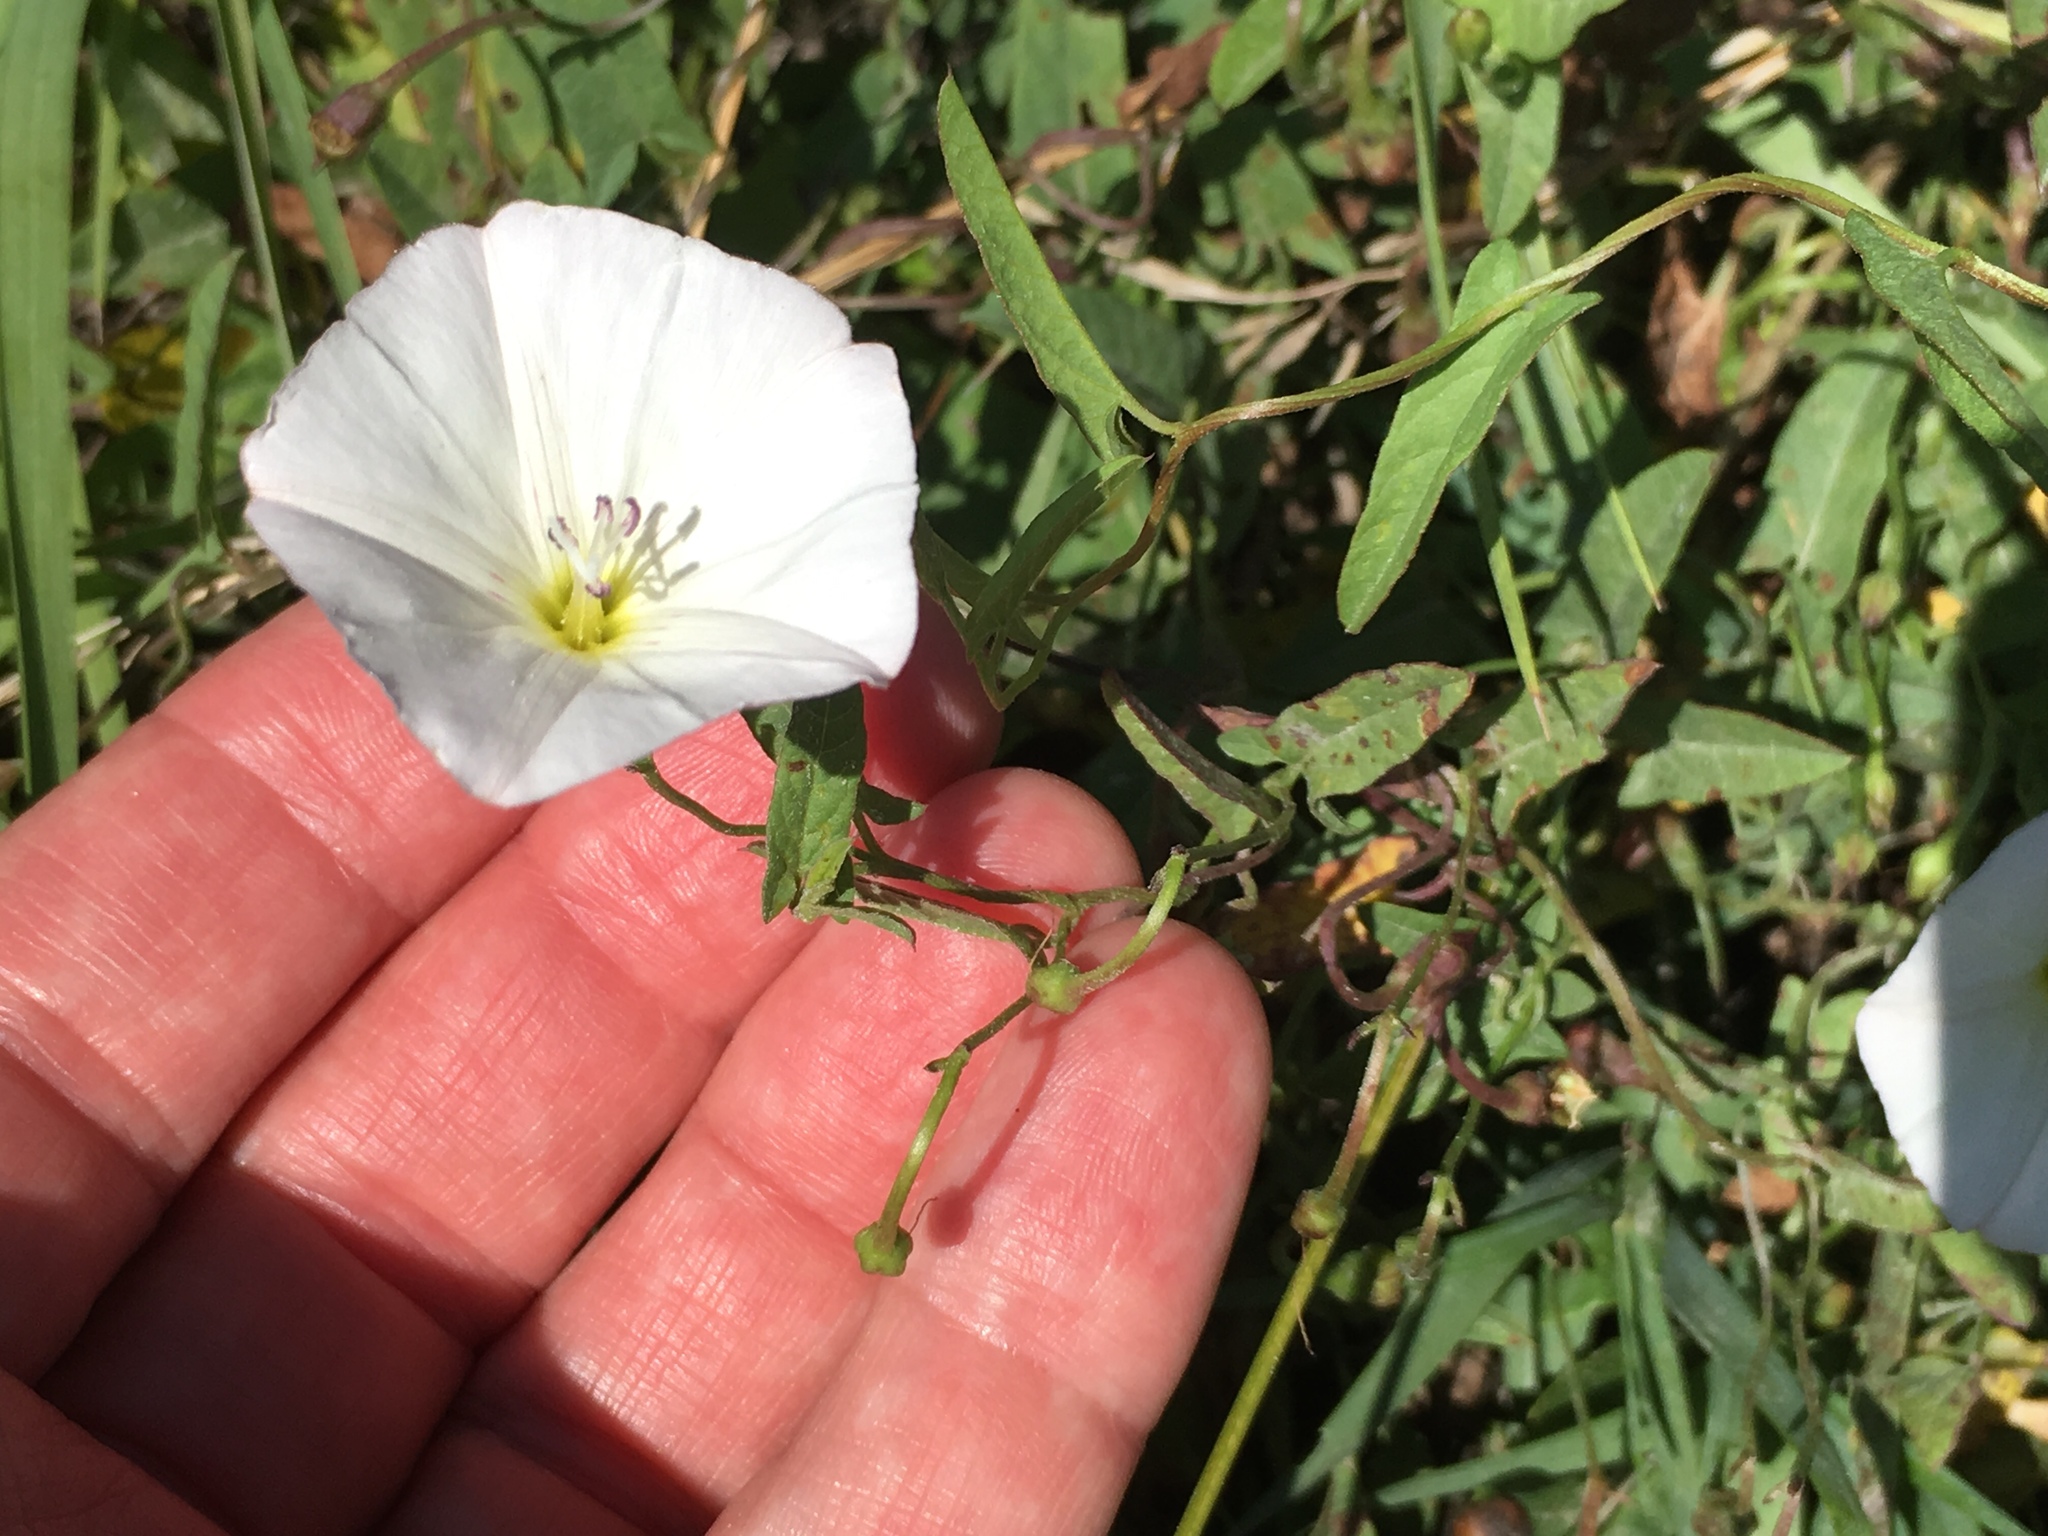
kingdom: Plantae
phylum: Tracheophyta
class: Magnoliopsida
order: Solanales
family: Convolvulaceae
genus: Convolvulus
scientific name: Convolvulus arvensis
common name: Field bindweed
